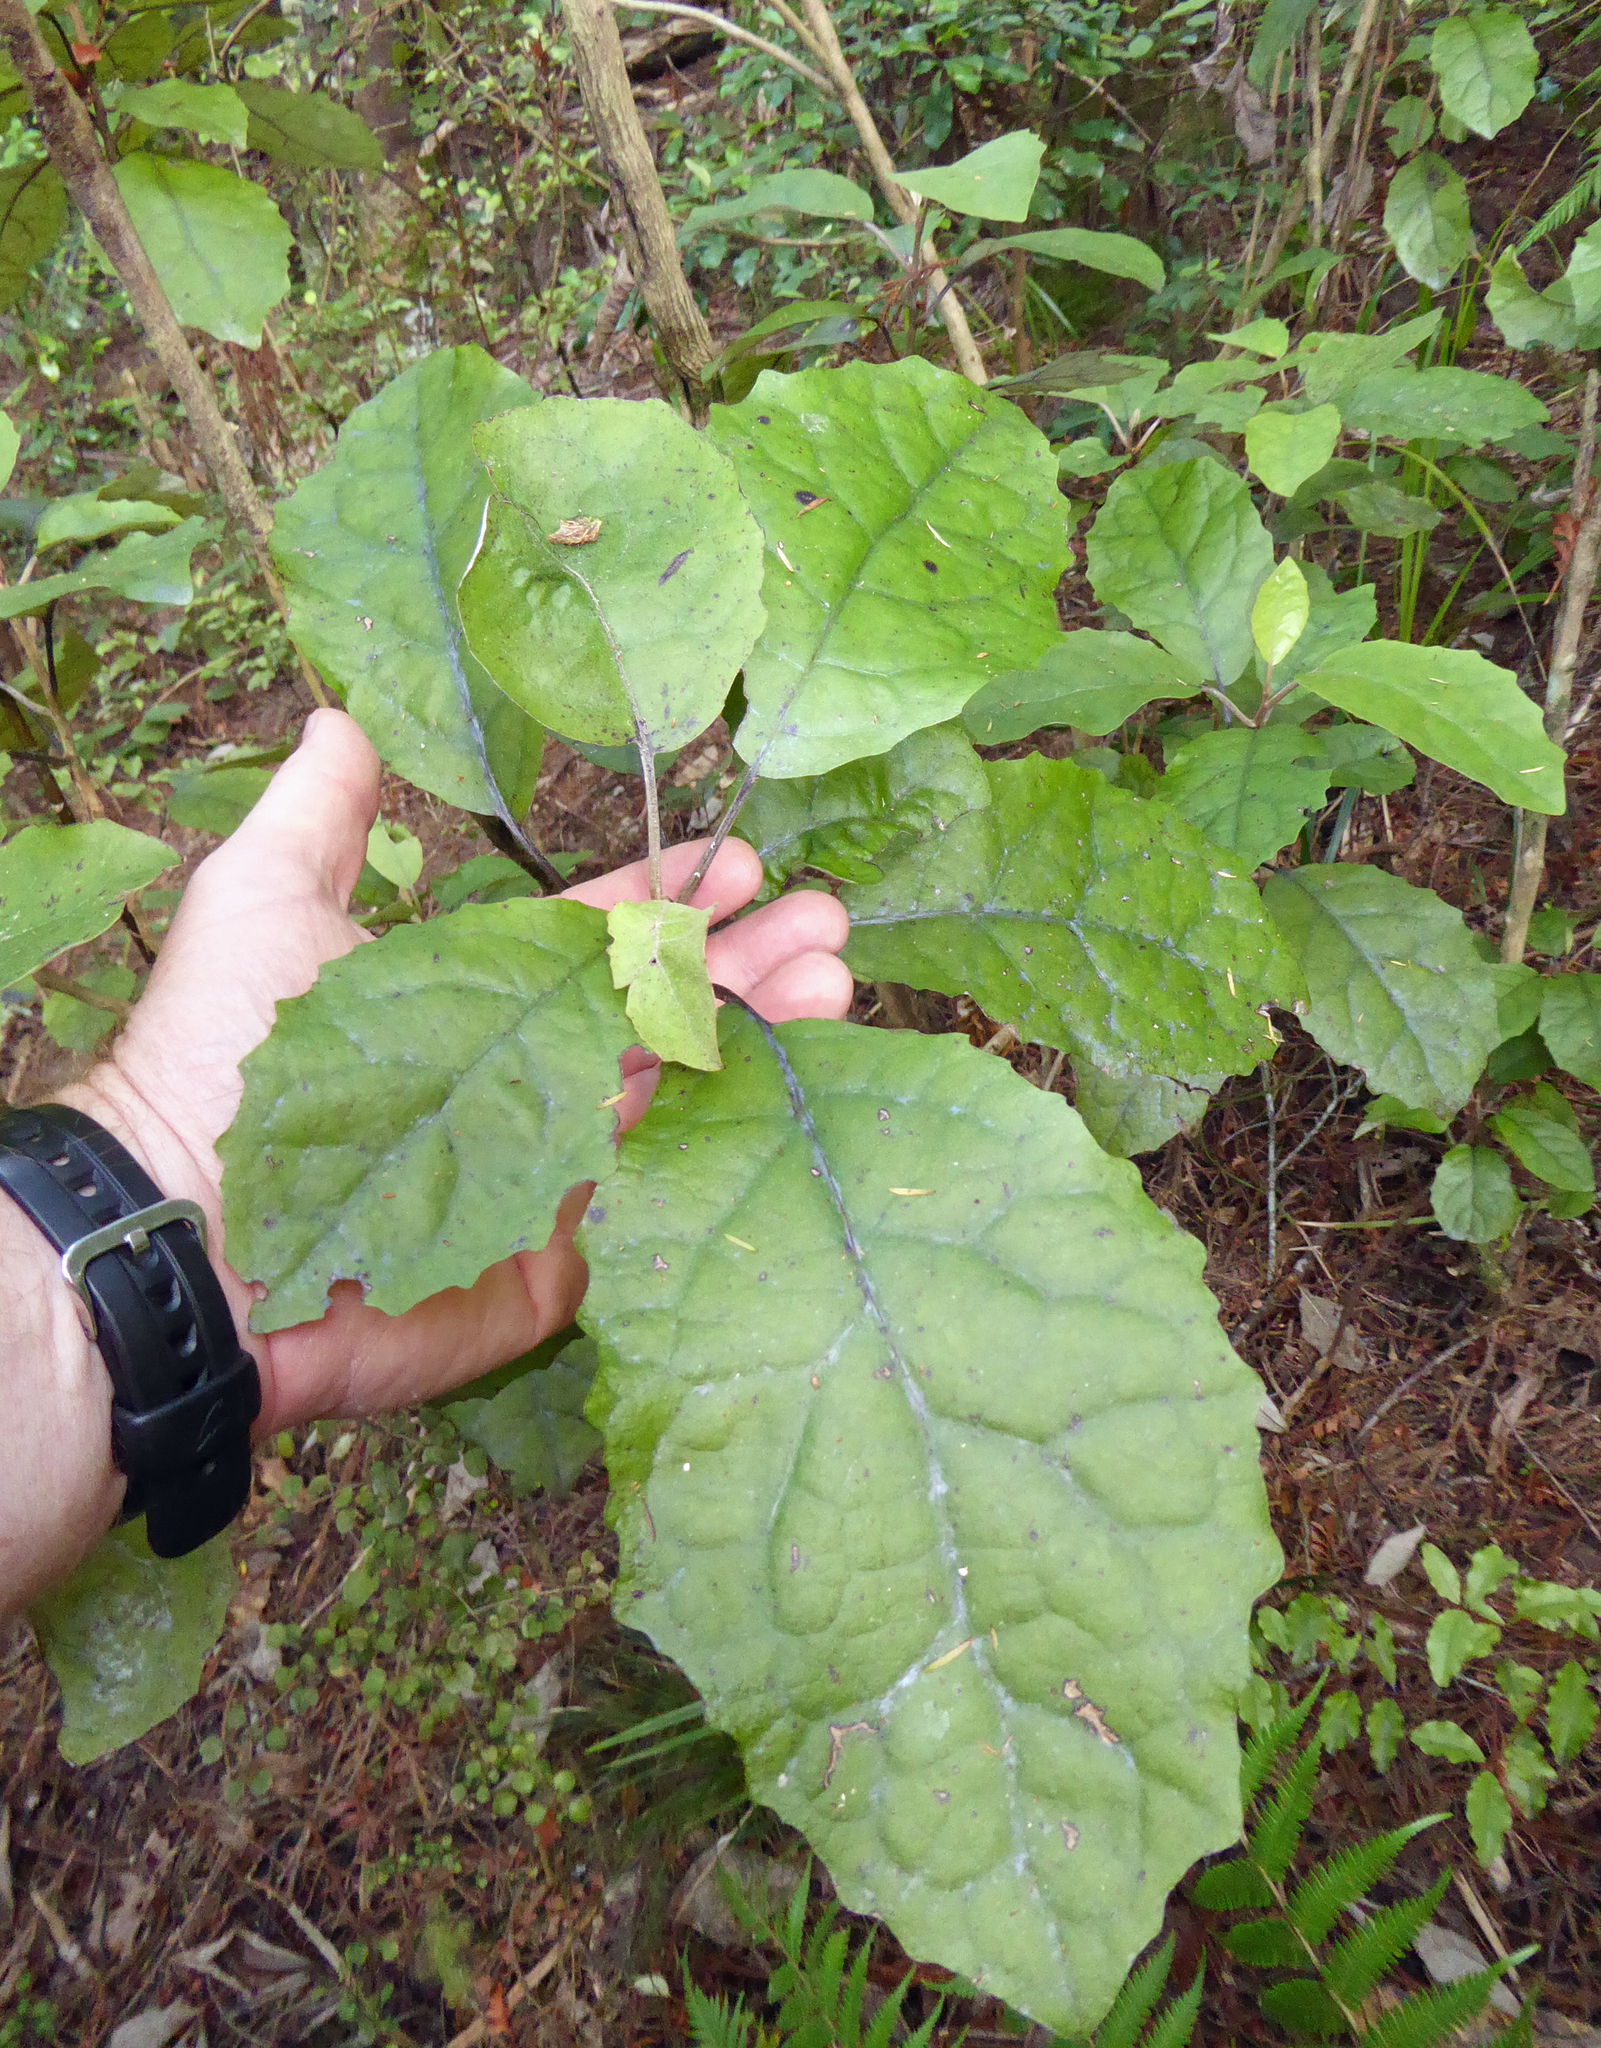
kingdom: Plantae
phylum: Tracheophyta
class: Magnoliopsida
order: Asterales
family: Asteraceae
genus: Olearia
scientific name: Olearia rani
